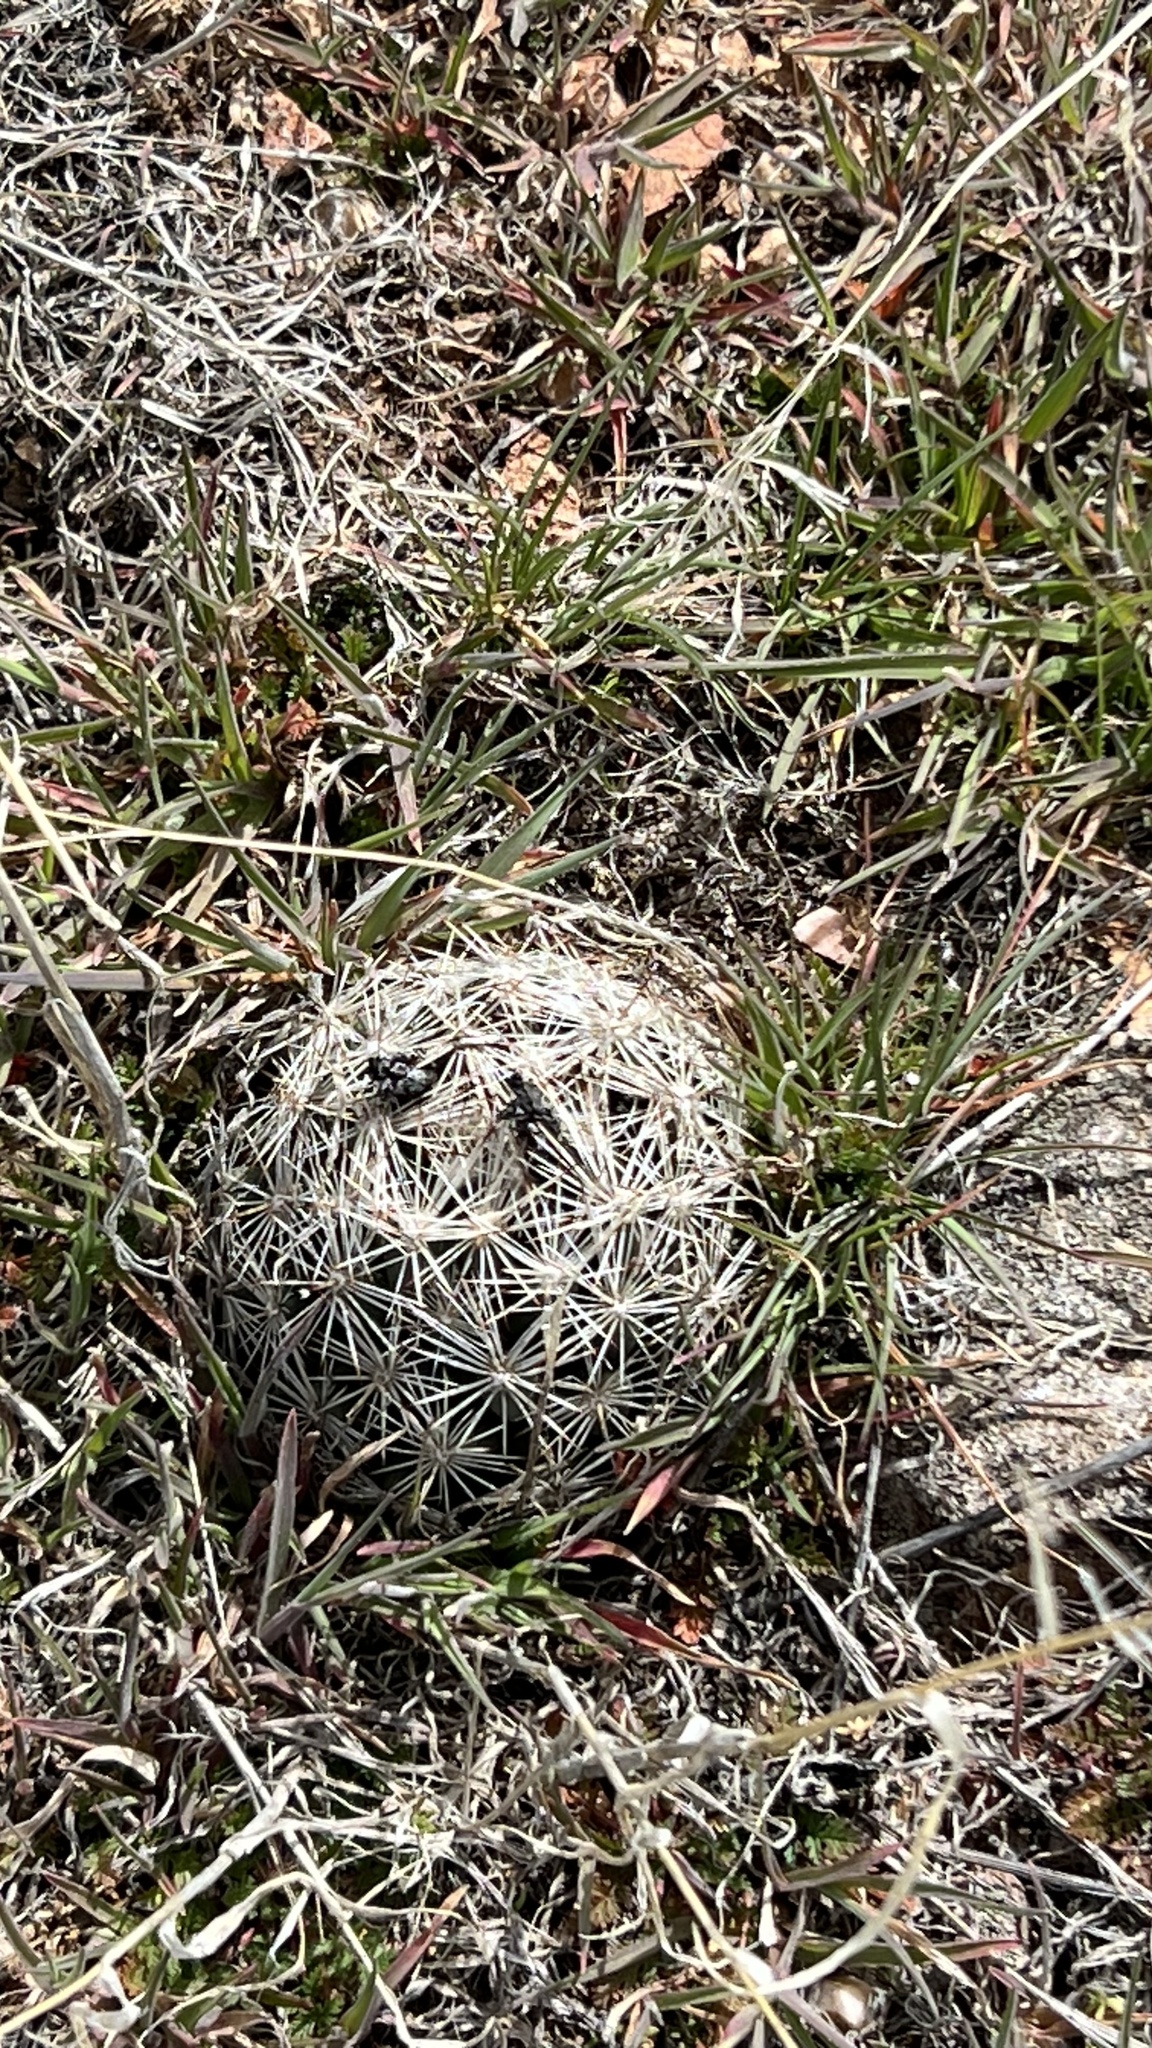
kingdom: Plantae
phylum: Tracheophyta
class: Magnoliopsida
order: Caryophyllales
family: Cactaceae
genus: Pelecyphora
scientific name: Pelecyphora vivipara
